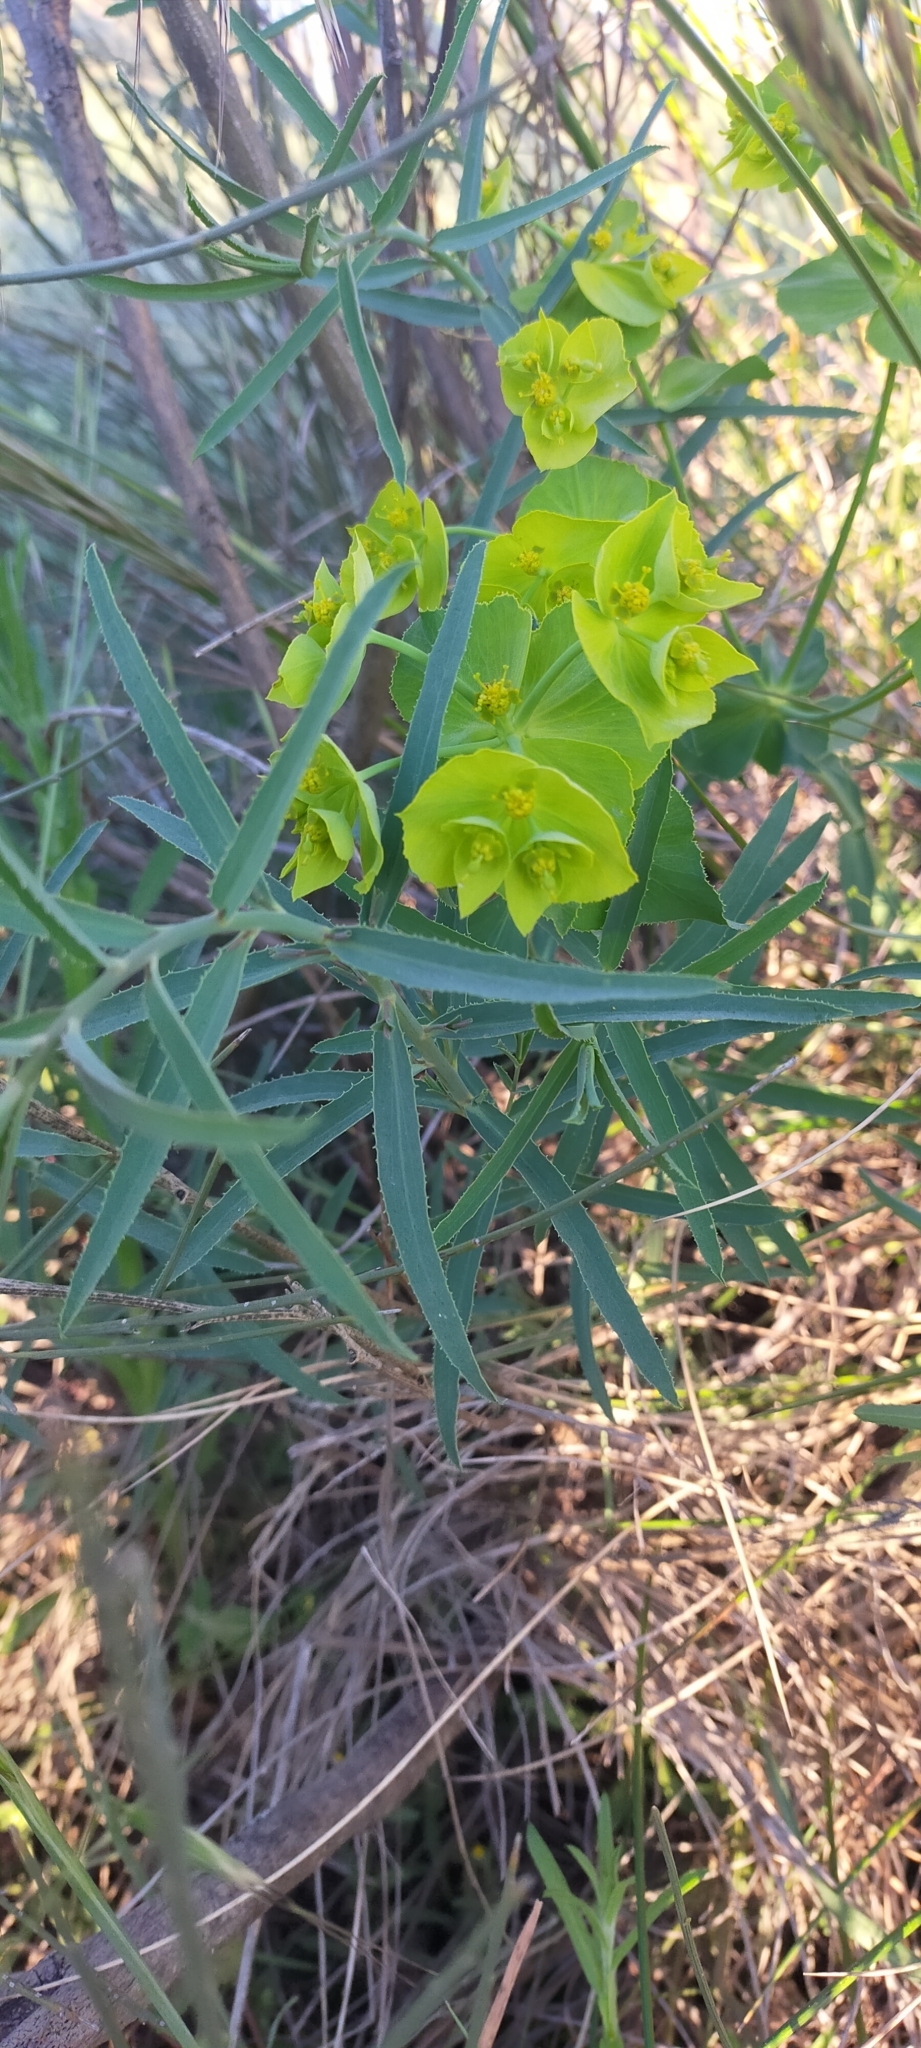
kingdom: Plantae
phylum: Tracheophyta
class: Magnoliopsida
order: Malpighiales
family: Euphorbiaceae
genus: Euphorbia
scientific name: Euphorbia serrata
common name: Serrate spurge
